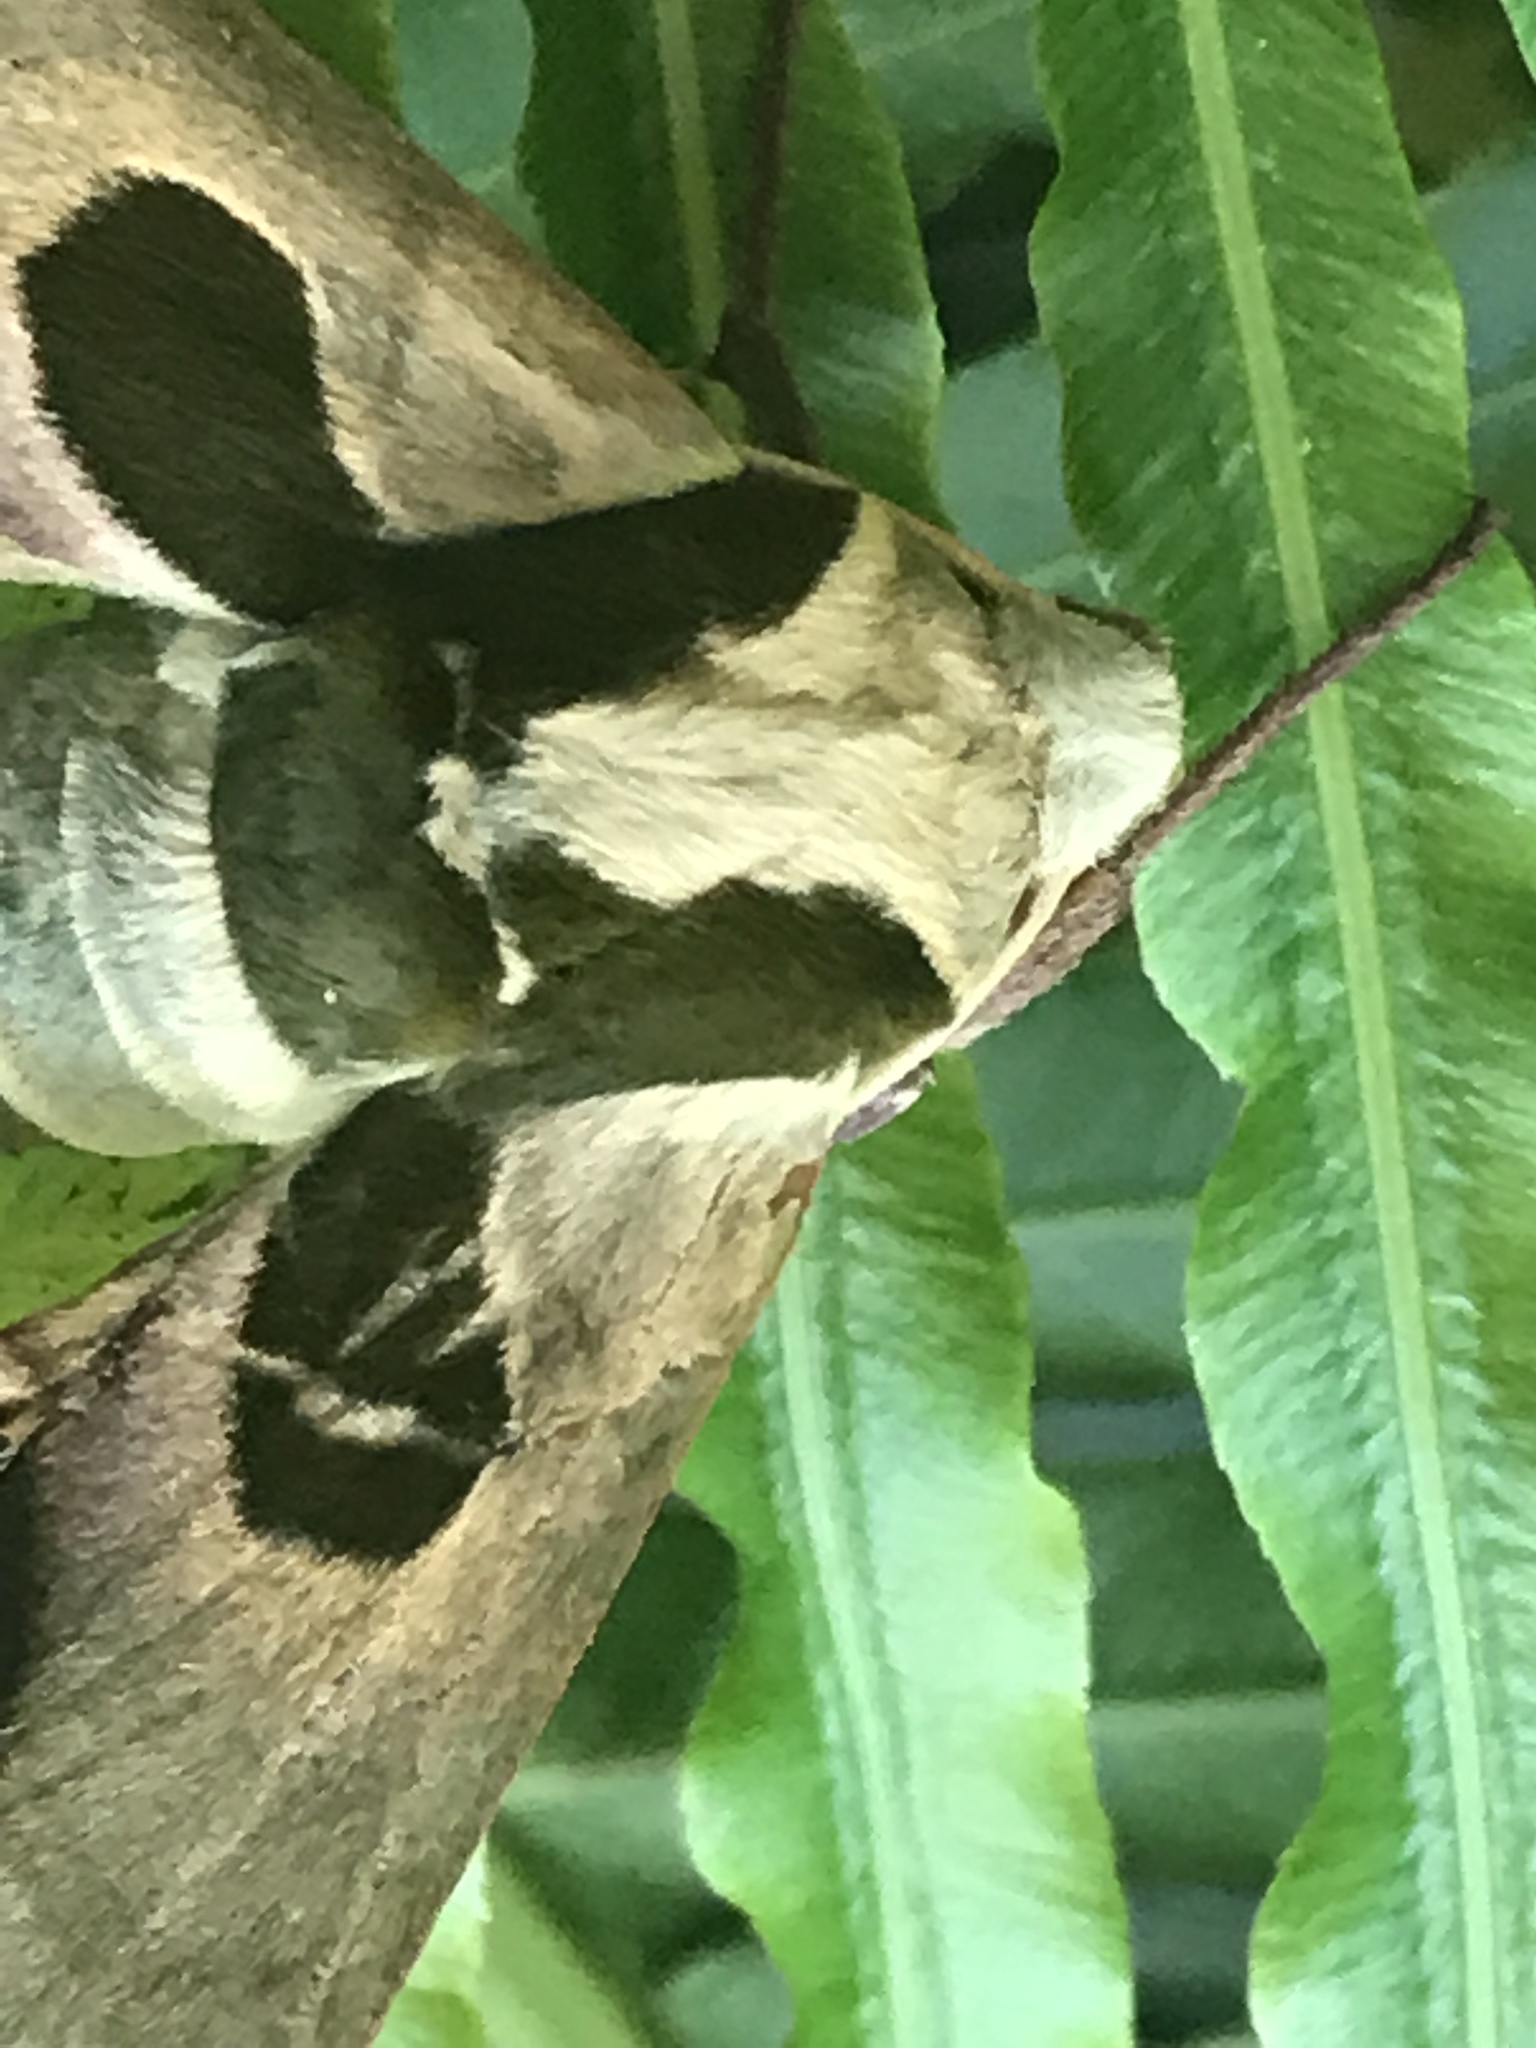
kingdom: Animalia
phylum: Arthropoda
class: Insecta
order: Lepidoptera
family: Sphingidae
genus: Adhemarius
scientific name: Adhemarius blanchardorum
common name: Blanchard's sphinx moth
